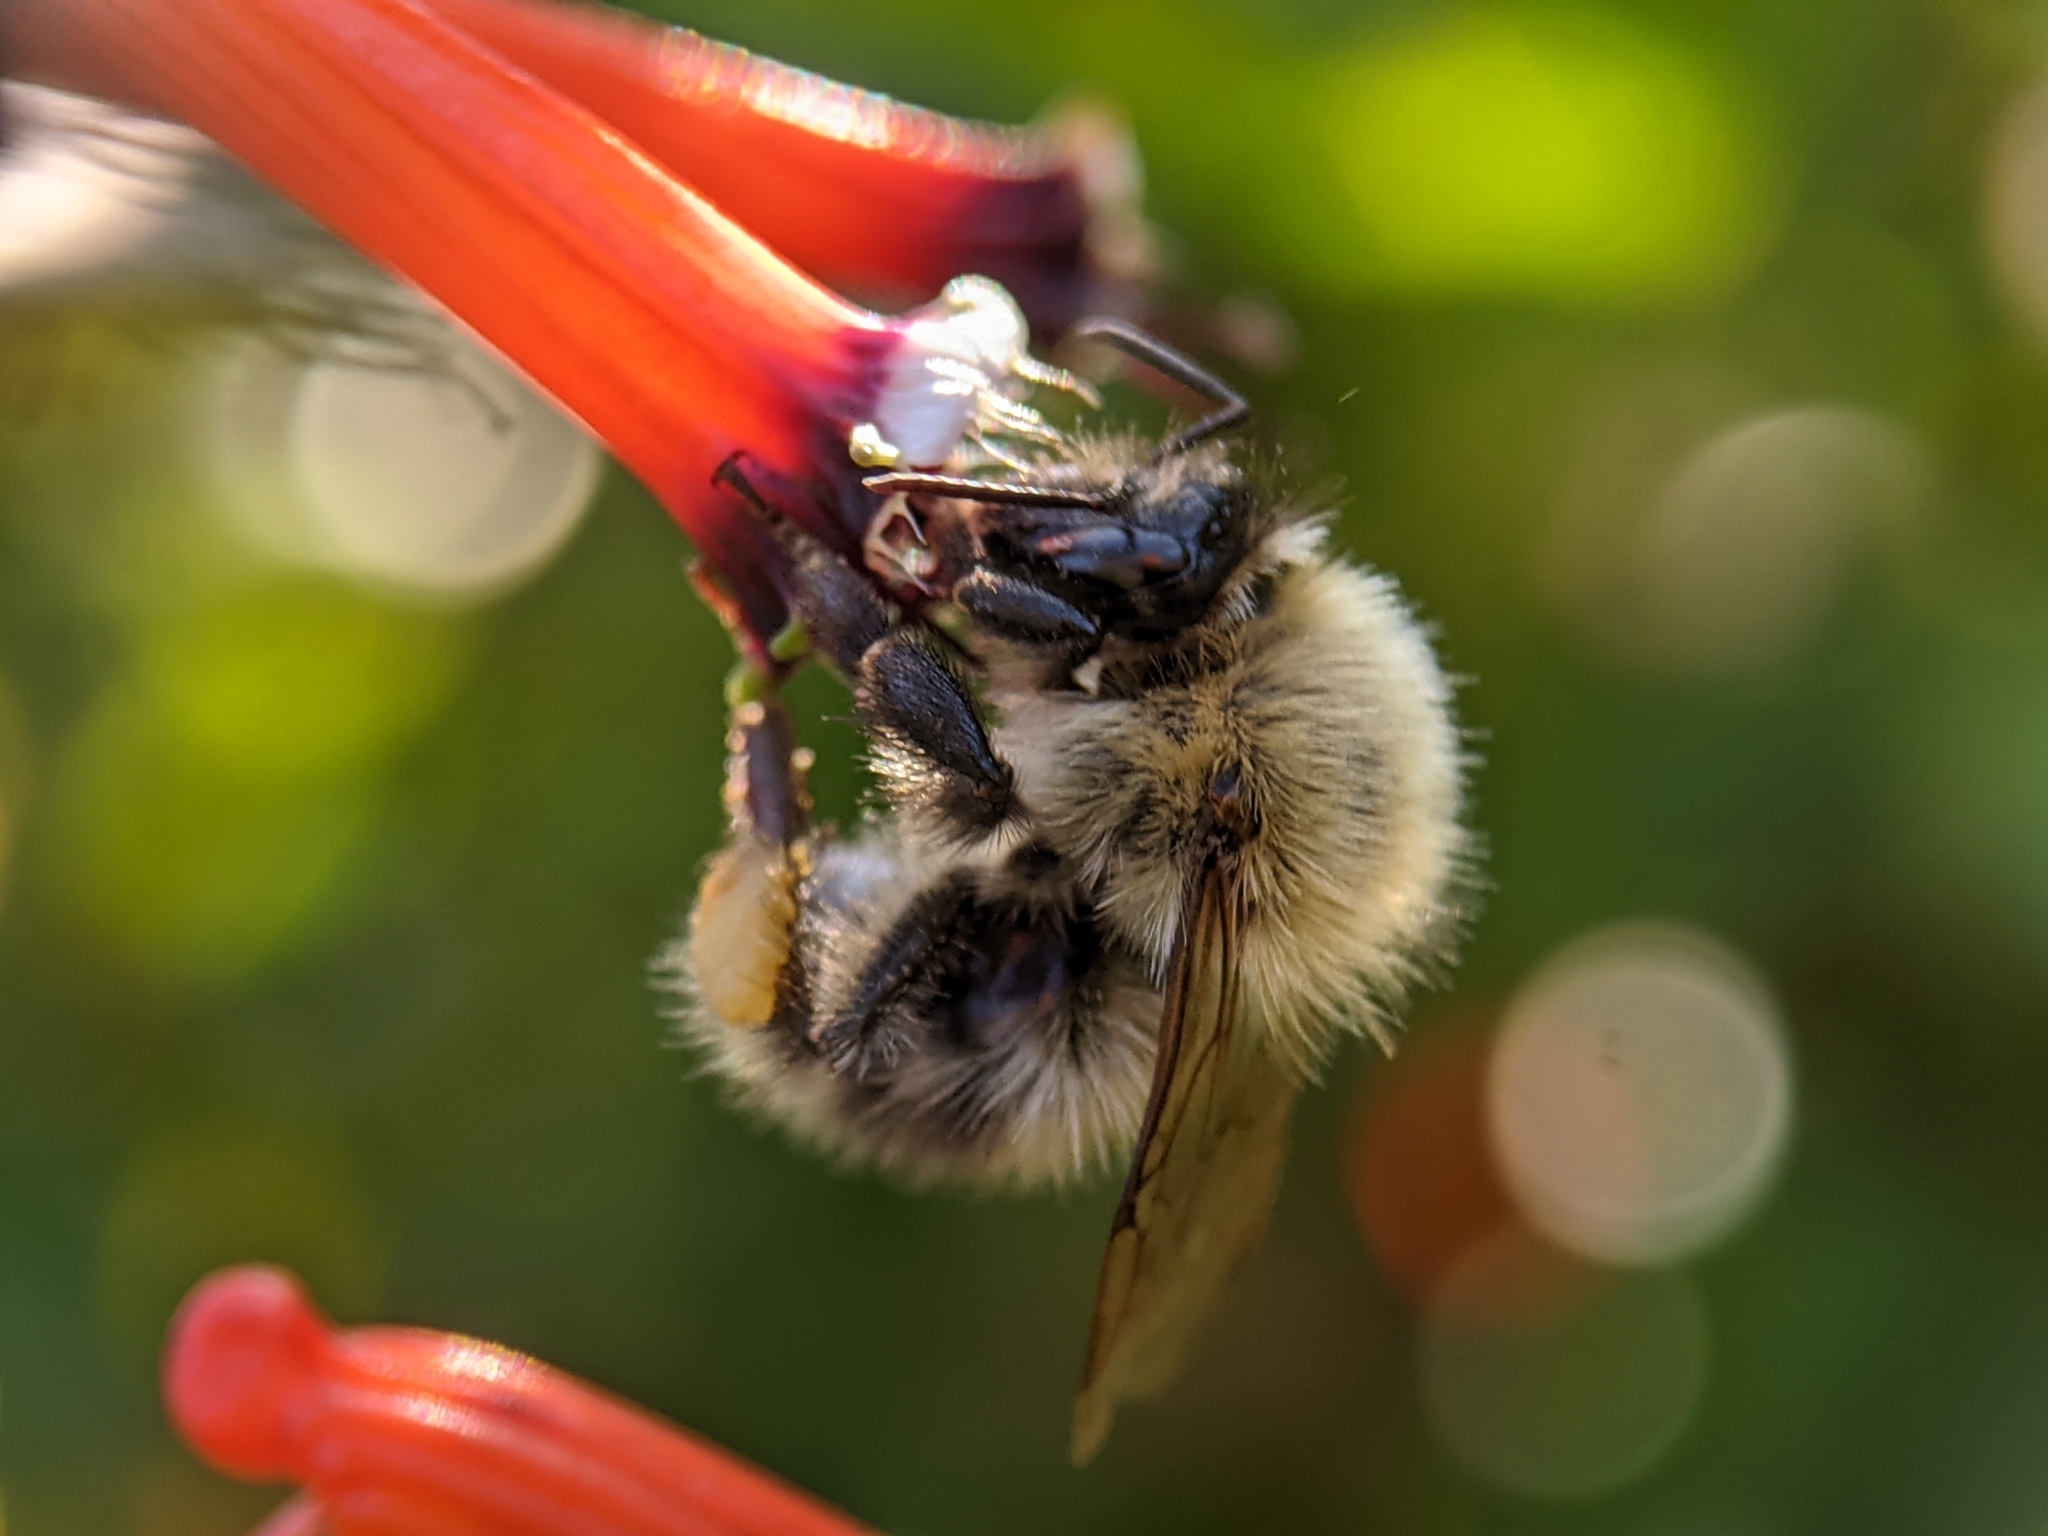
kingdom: Animalia
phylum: Arthropoda
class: Insecta
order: Hymenoptera
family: Apidae
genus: Bombus
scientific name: Bombus pascuorum
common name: Common carder bee
